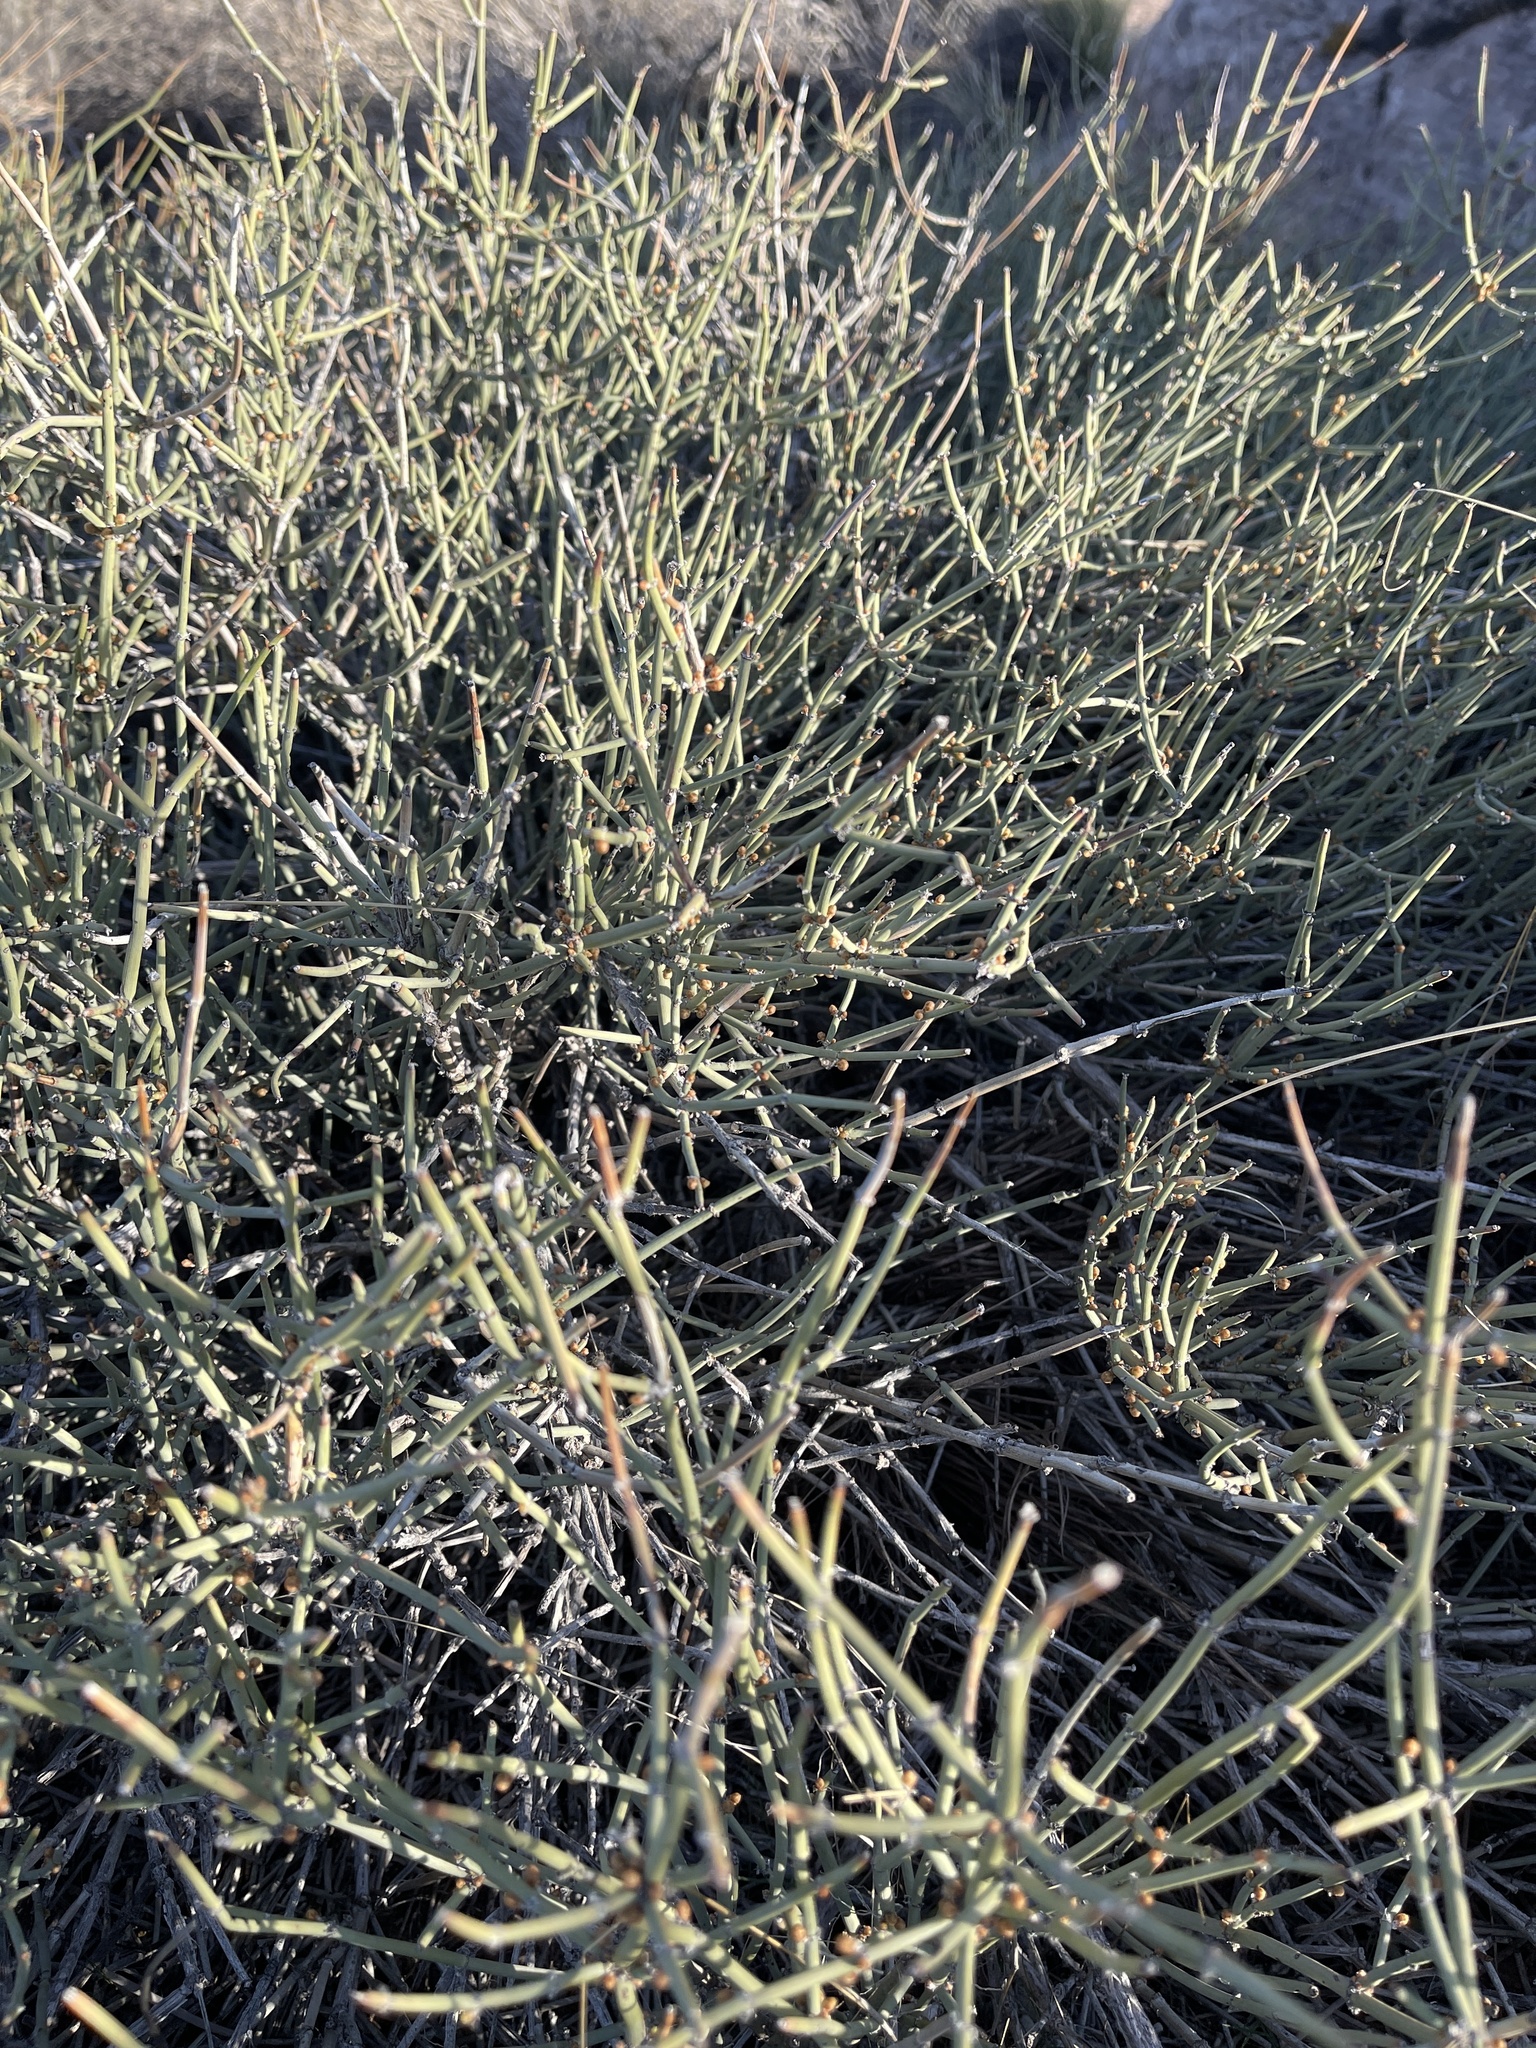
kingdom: Plantae
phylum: Tracheophyta
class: Gnetopsida
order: Ephedrales
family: Ephedraceae
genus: Ephedra
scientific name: Ephedra viridis
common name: Green ephedra
